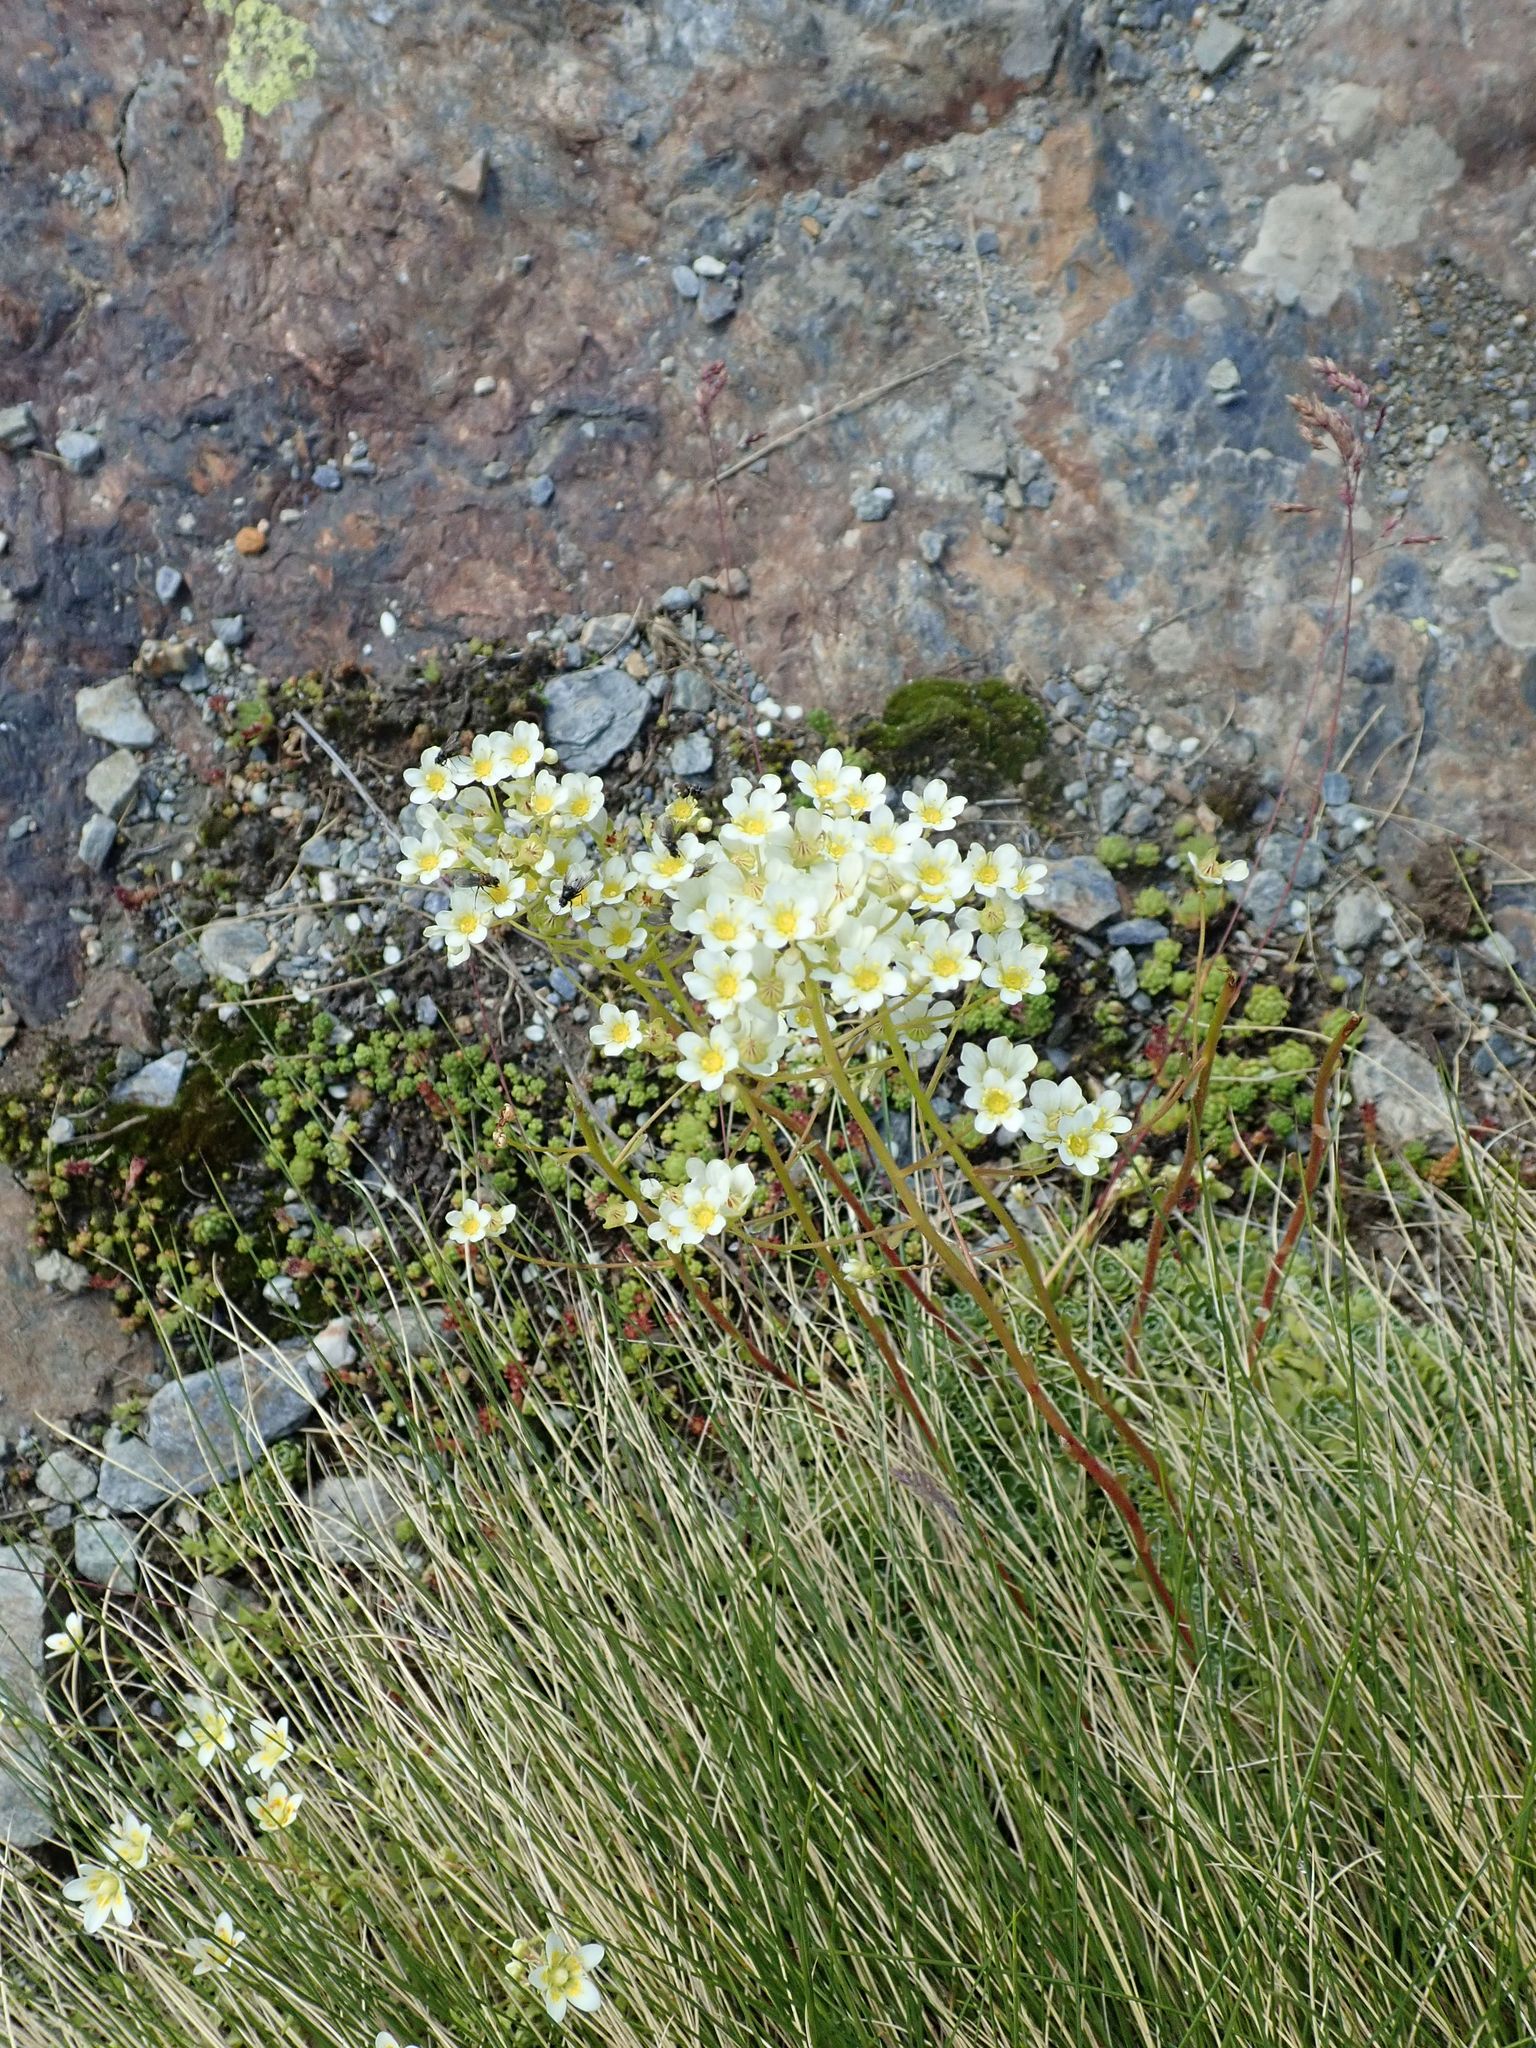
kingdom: Plantae
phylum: Tracheophyta
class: Magnoliopsida
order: Saxifragales
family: Saxifragaceae
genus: Saxifraga
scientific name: Saxifraga paniculata
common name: Livelong saxifrage
